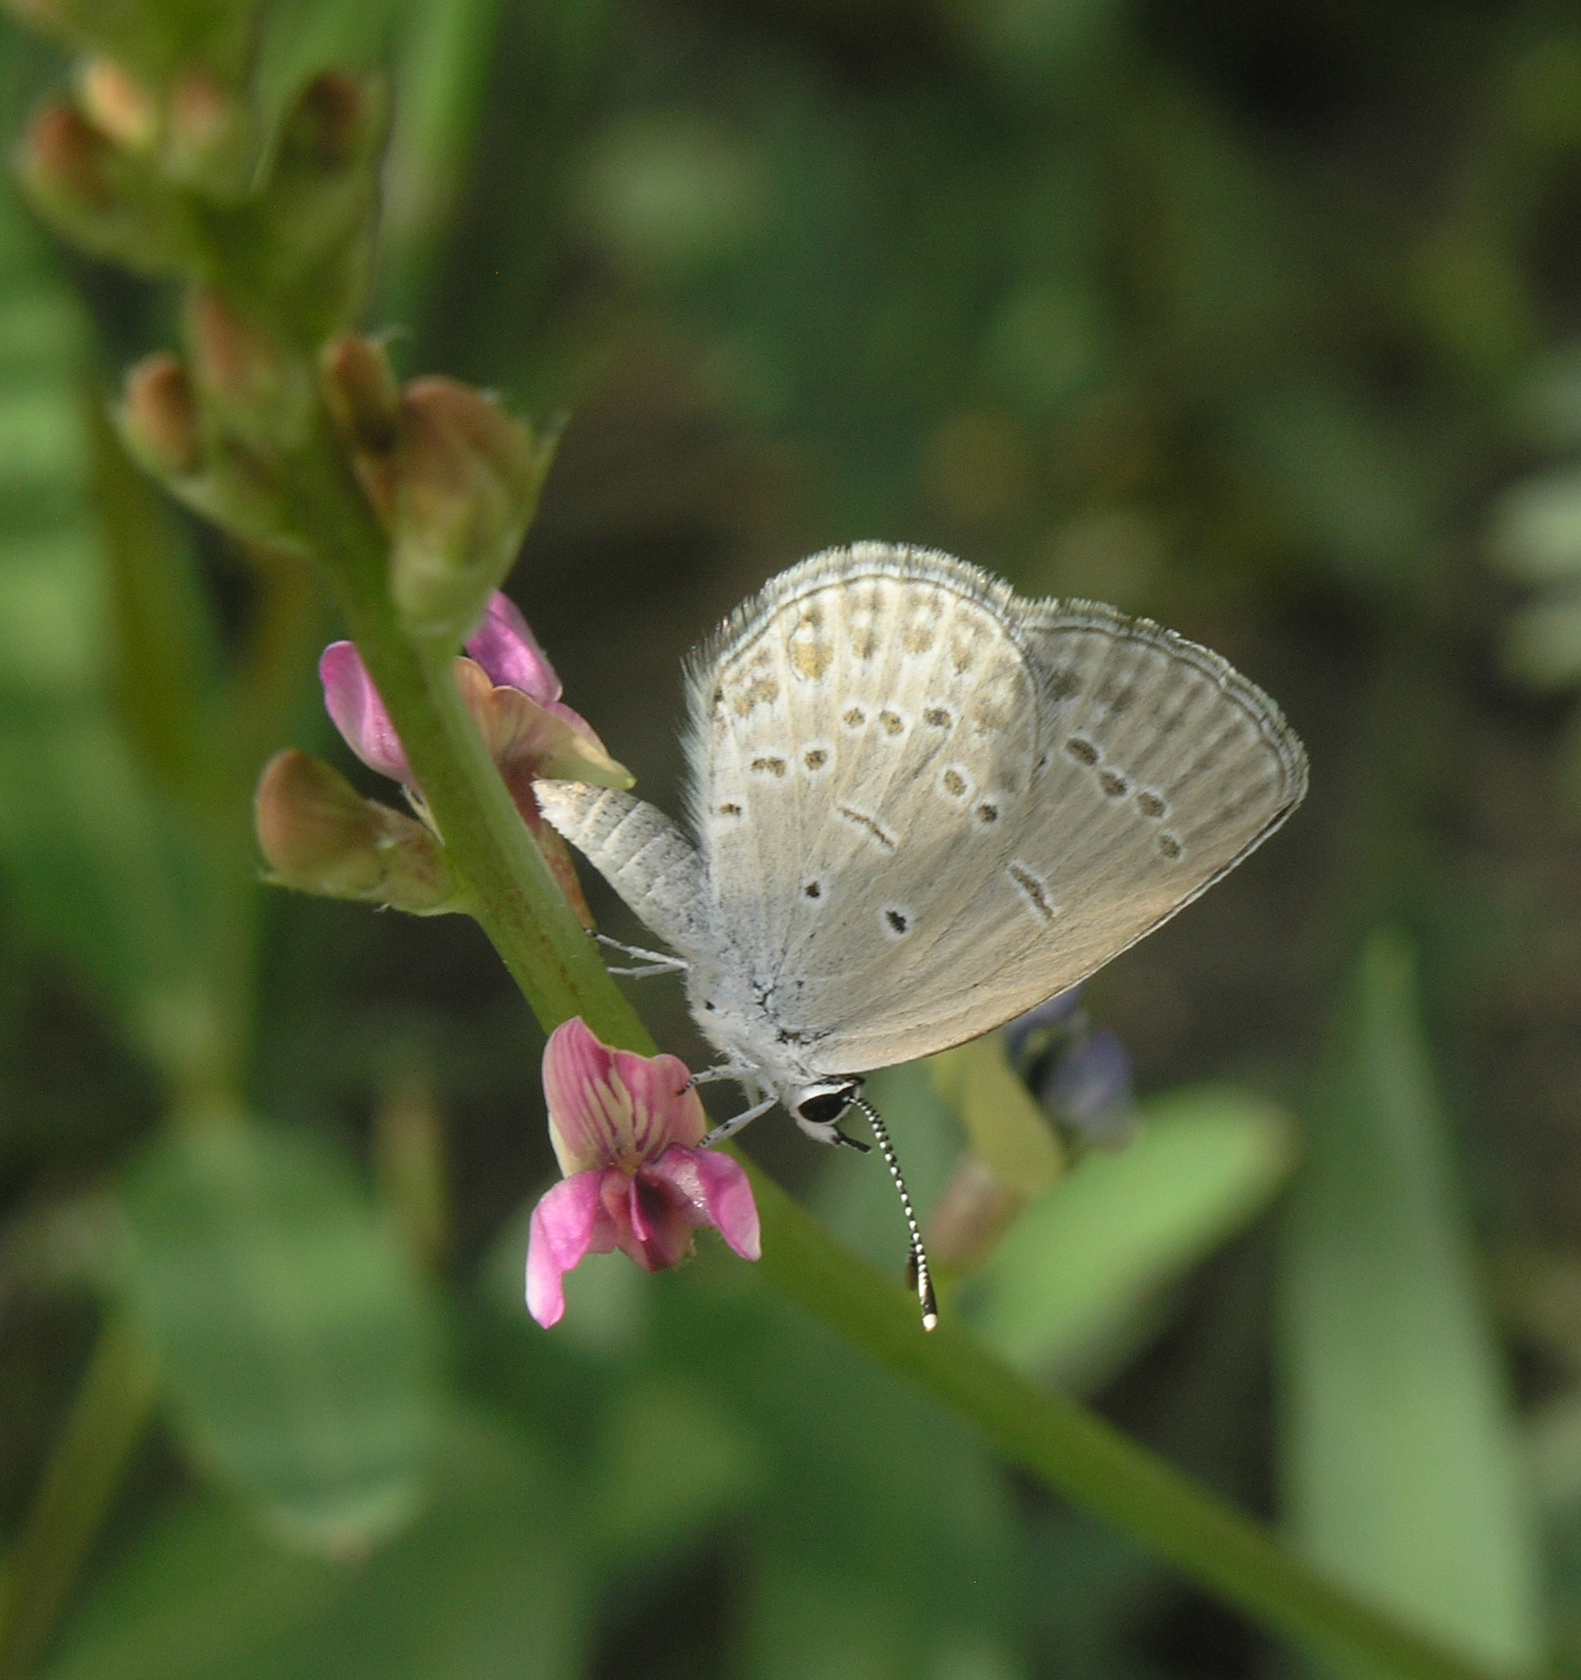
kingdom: Animalia
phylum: Arthropoda
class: Insecta
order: Lepidoptera
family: Lycaenidae
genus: Cupido
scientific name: Cupido prosecusa
